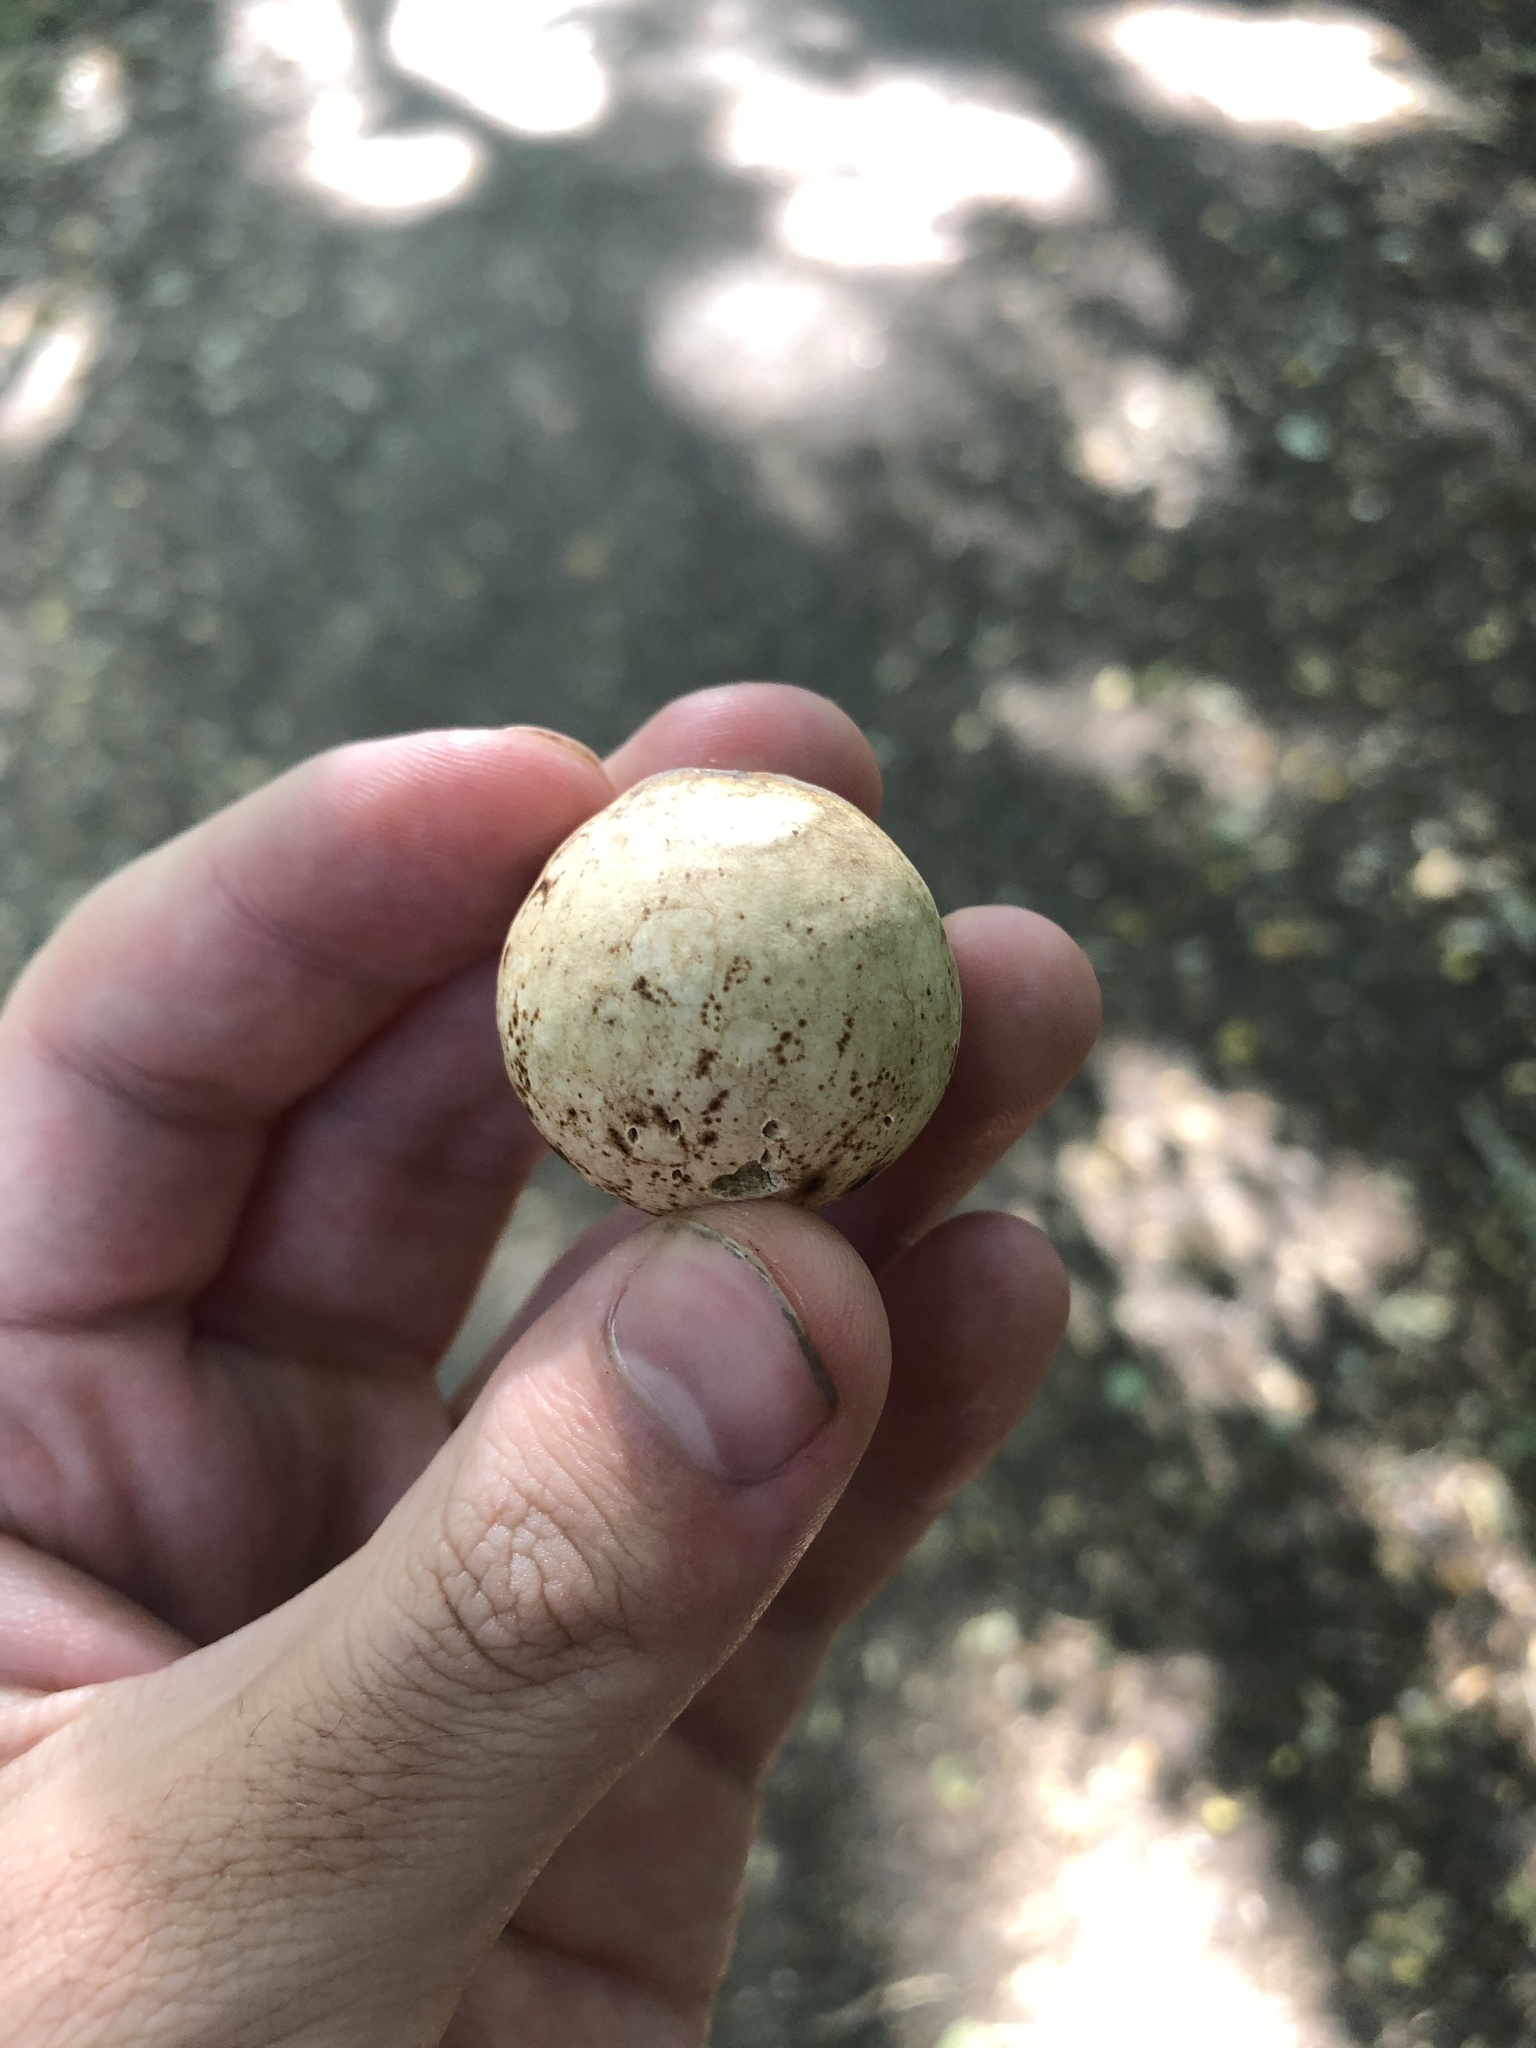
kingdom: Animalia
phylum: Arthropoda
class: Insecta
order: Hymenoptera
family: Cynipidae
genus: Andricus
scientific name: Andricus quercuscalifornicus
